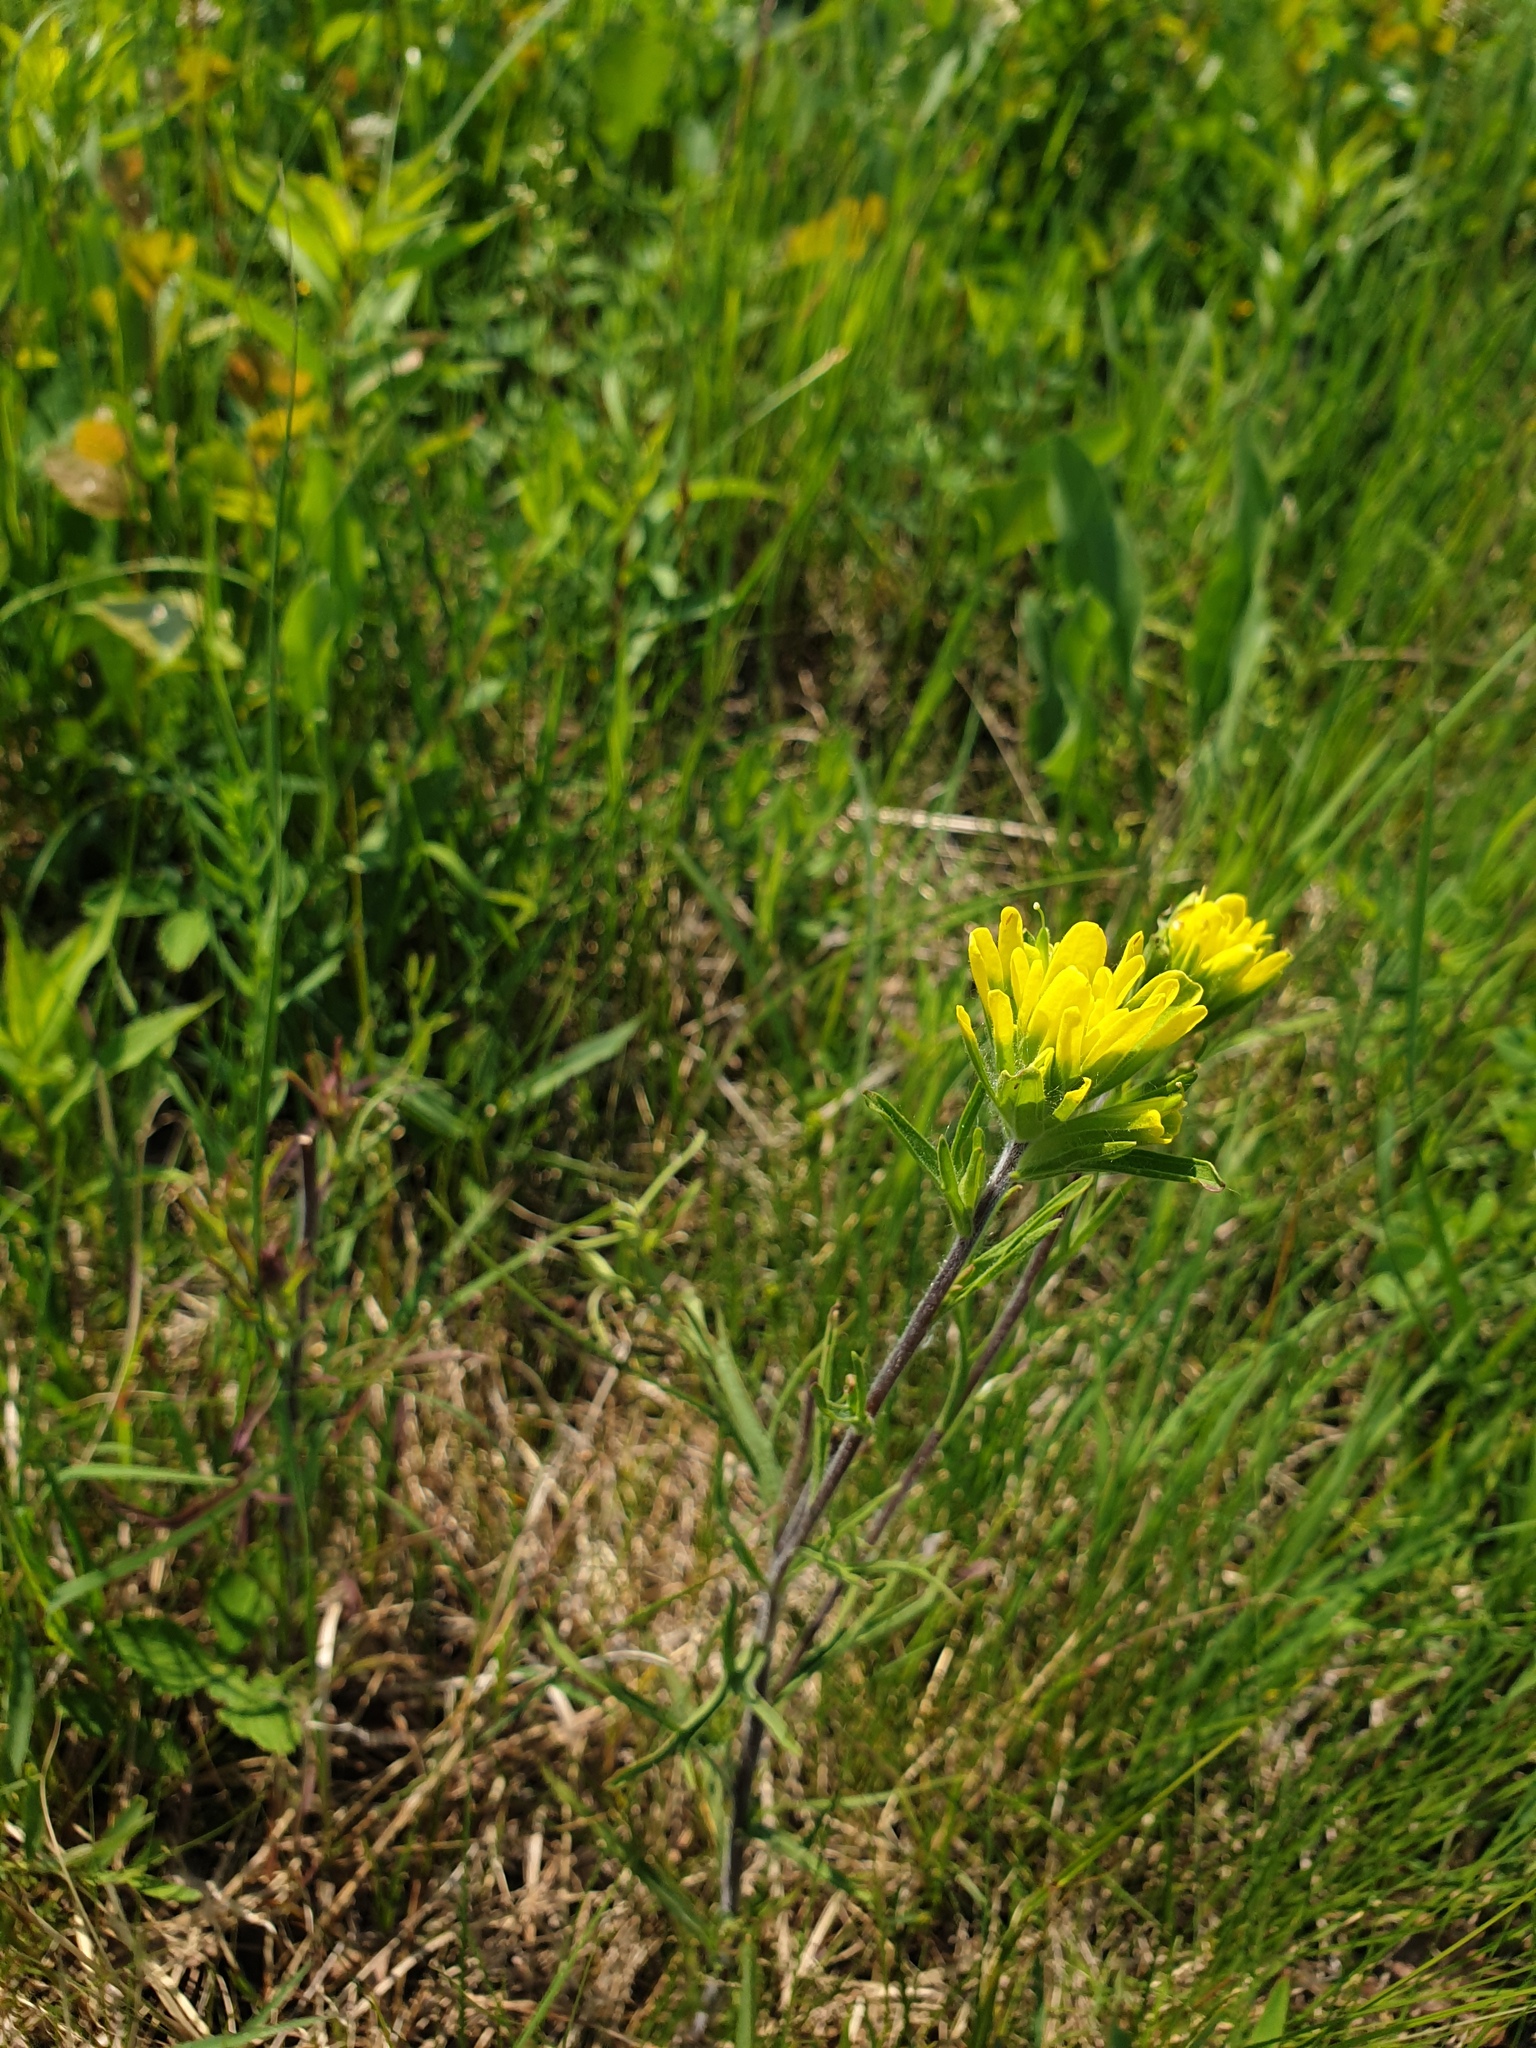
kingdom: Plantae
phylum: Tracheophyta
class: Magnoliopsida
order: Lamiales
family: Orobanchaceae
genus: Castilleja
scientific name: Castilleja coccinea
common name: Scarlet paintbrush
